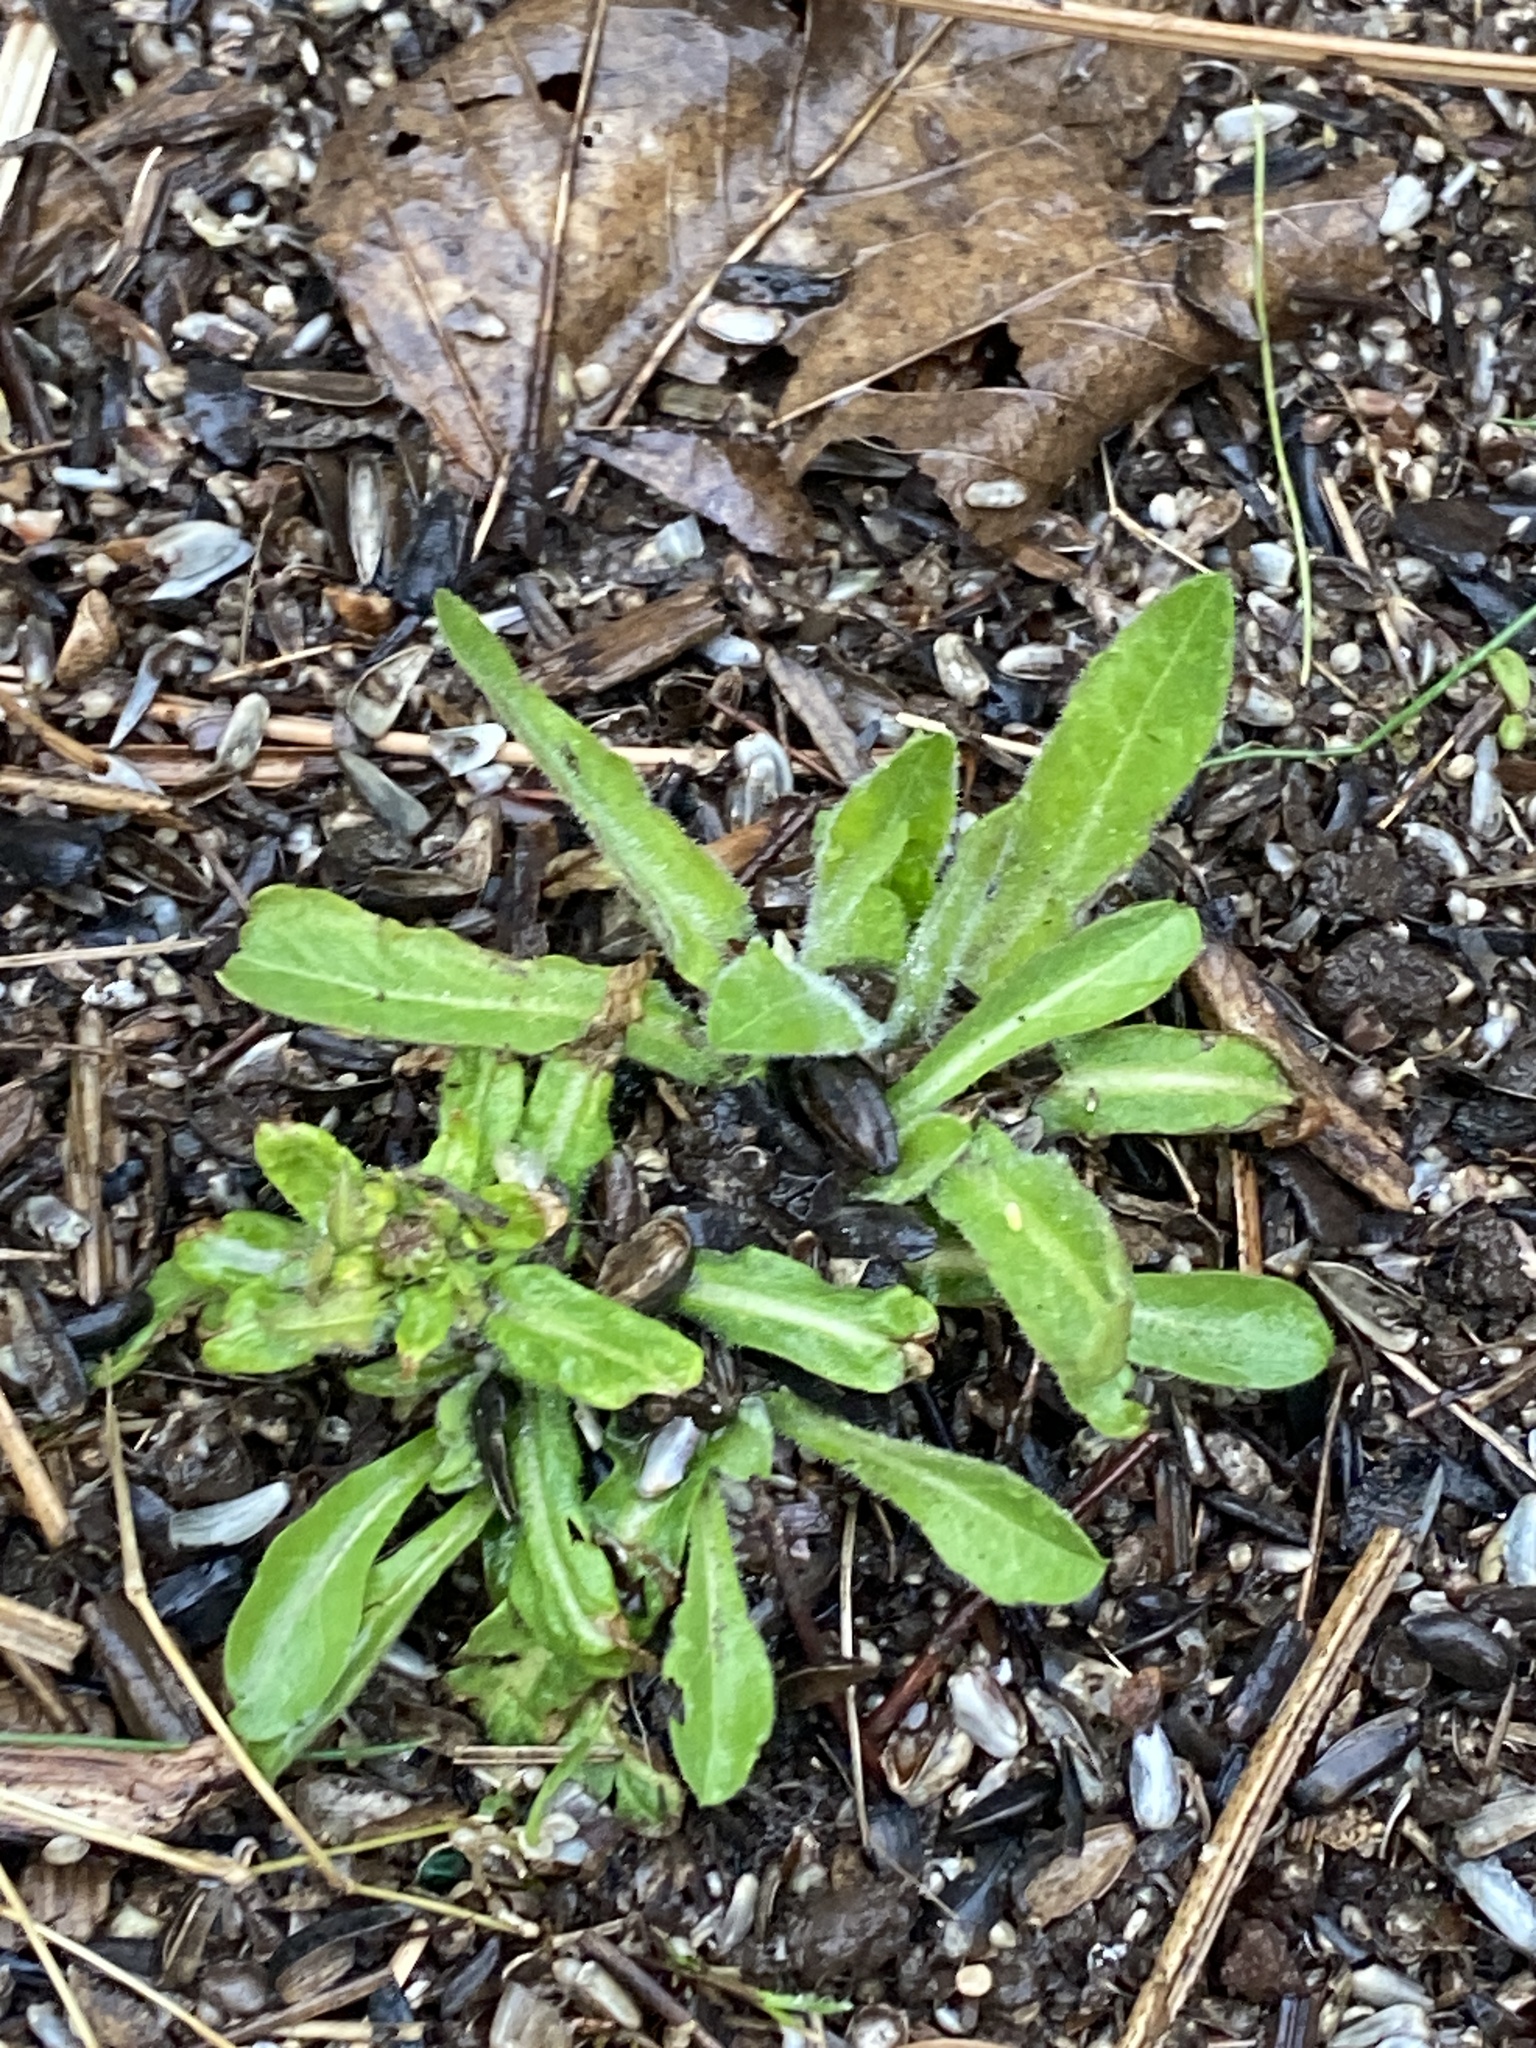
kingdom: Plantae
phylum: Tracheophyta
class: Magnoliopsida
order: Asterales
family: Asteraceae
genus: Erigeron
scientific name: Erigeron philadelphicus
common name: Robin's-plantain
